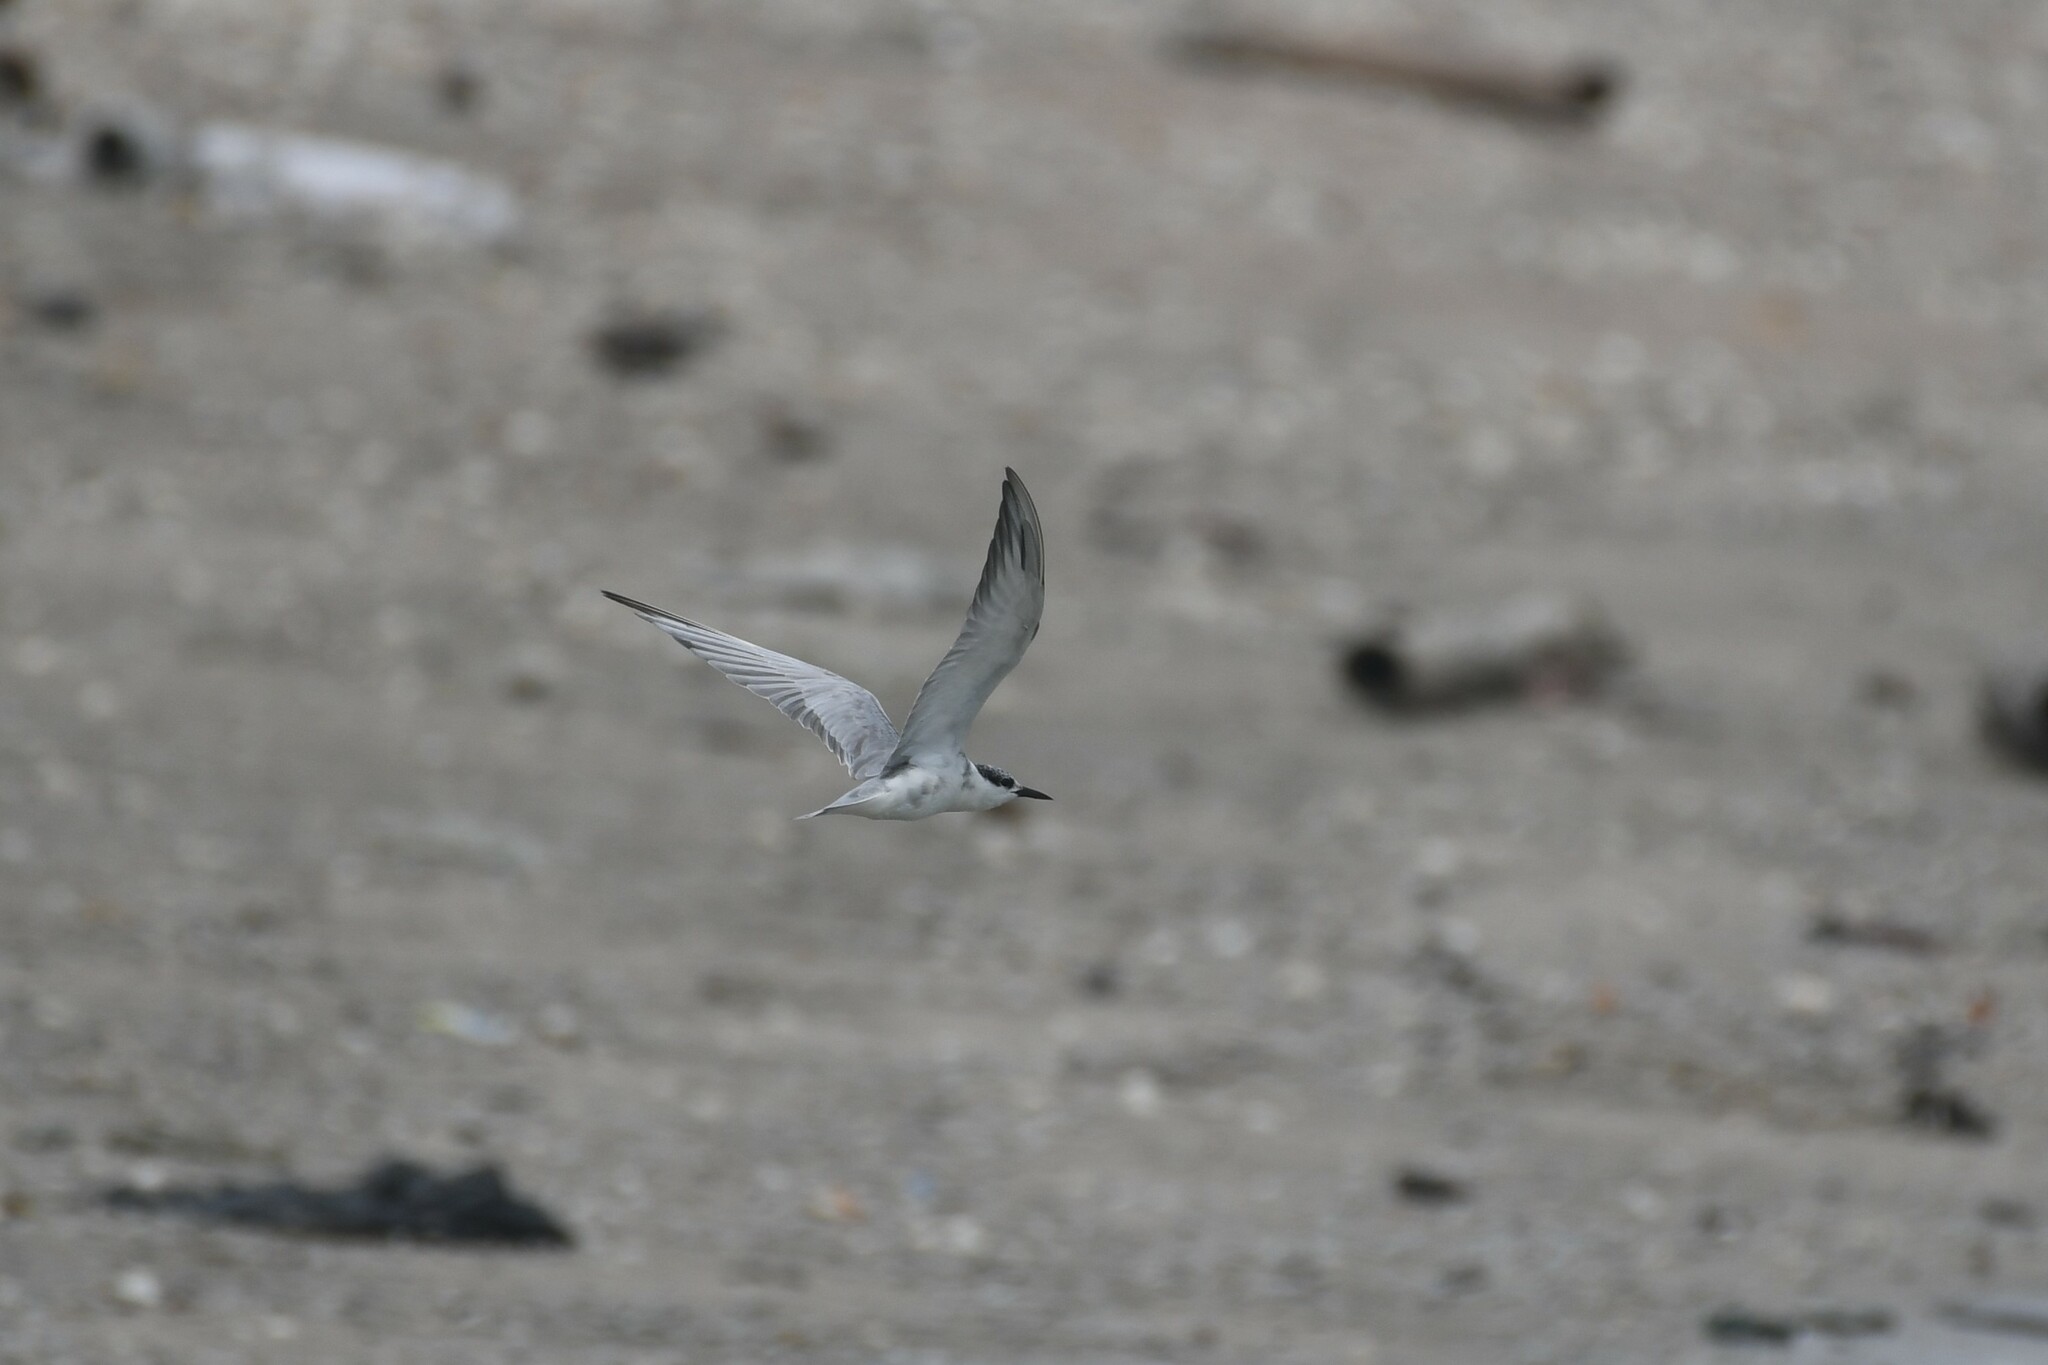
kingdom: Animalia
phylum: Chordata
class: Aves
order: Charadriiformes
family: Laridae
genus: Chlidonias
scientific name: Chlidonias hybrida
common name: Whiskered tern
